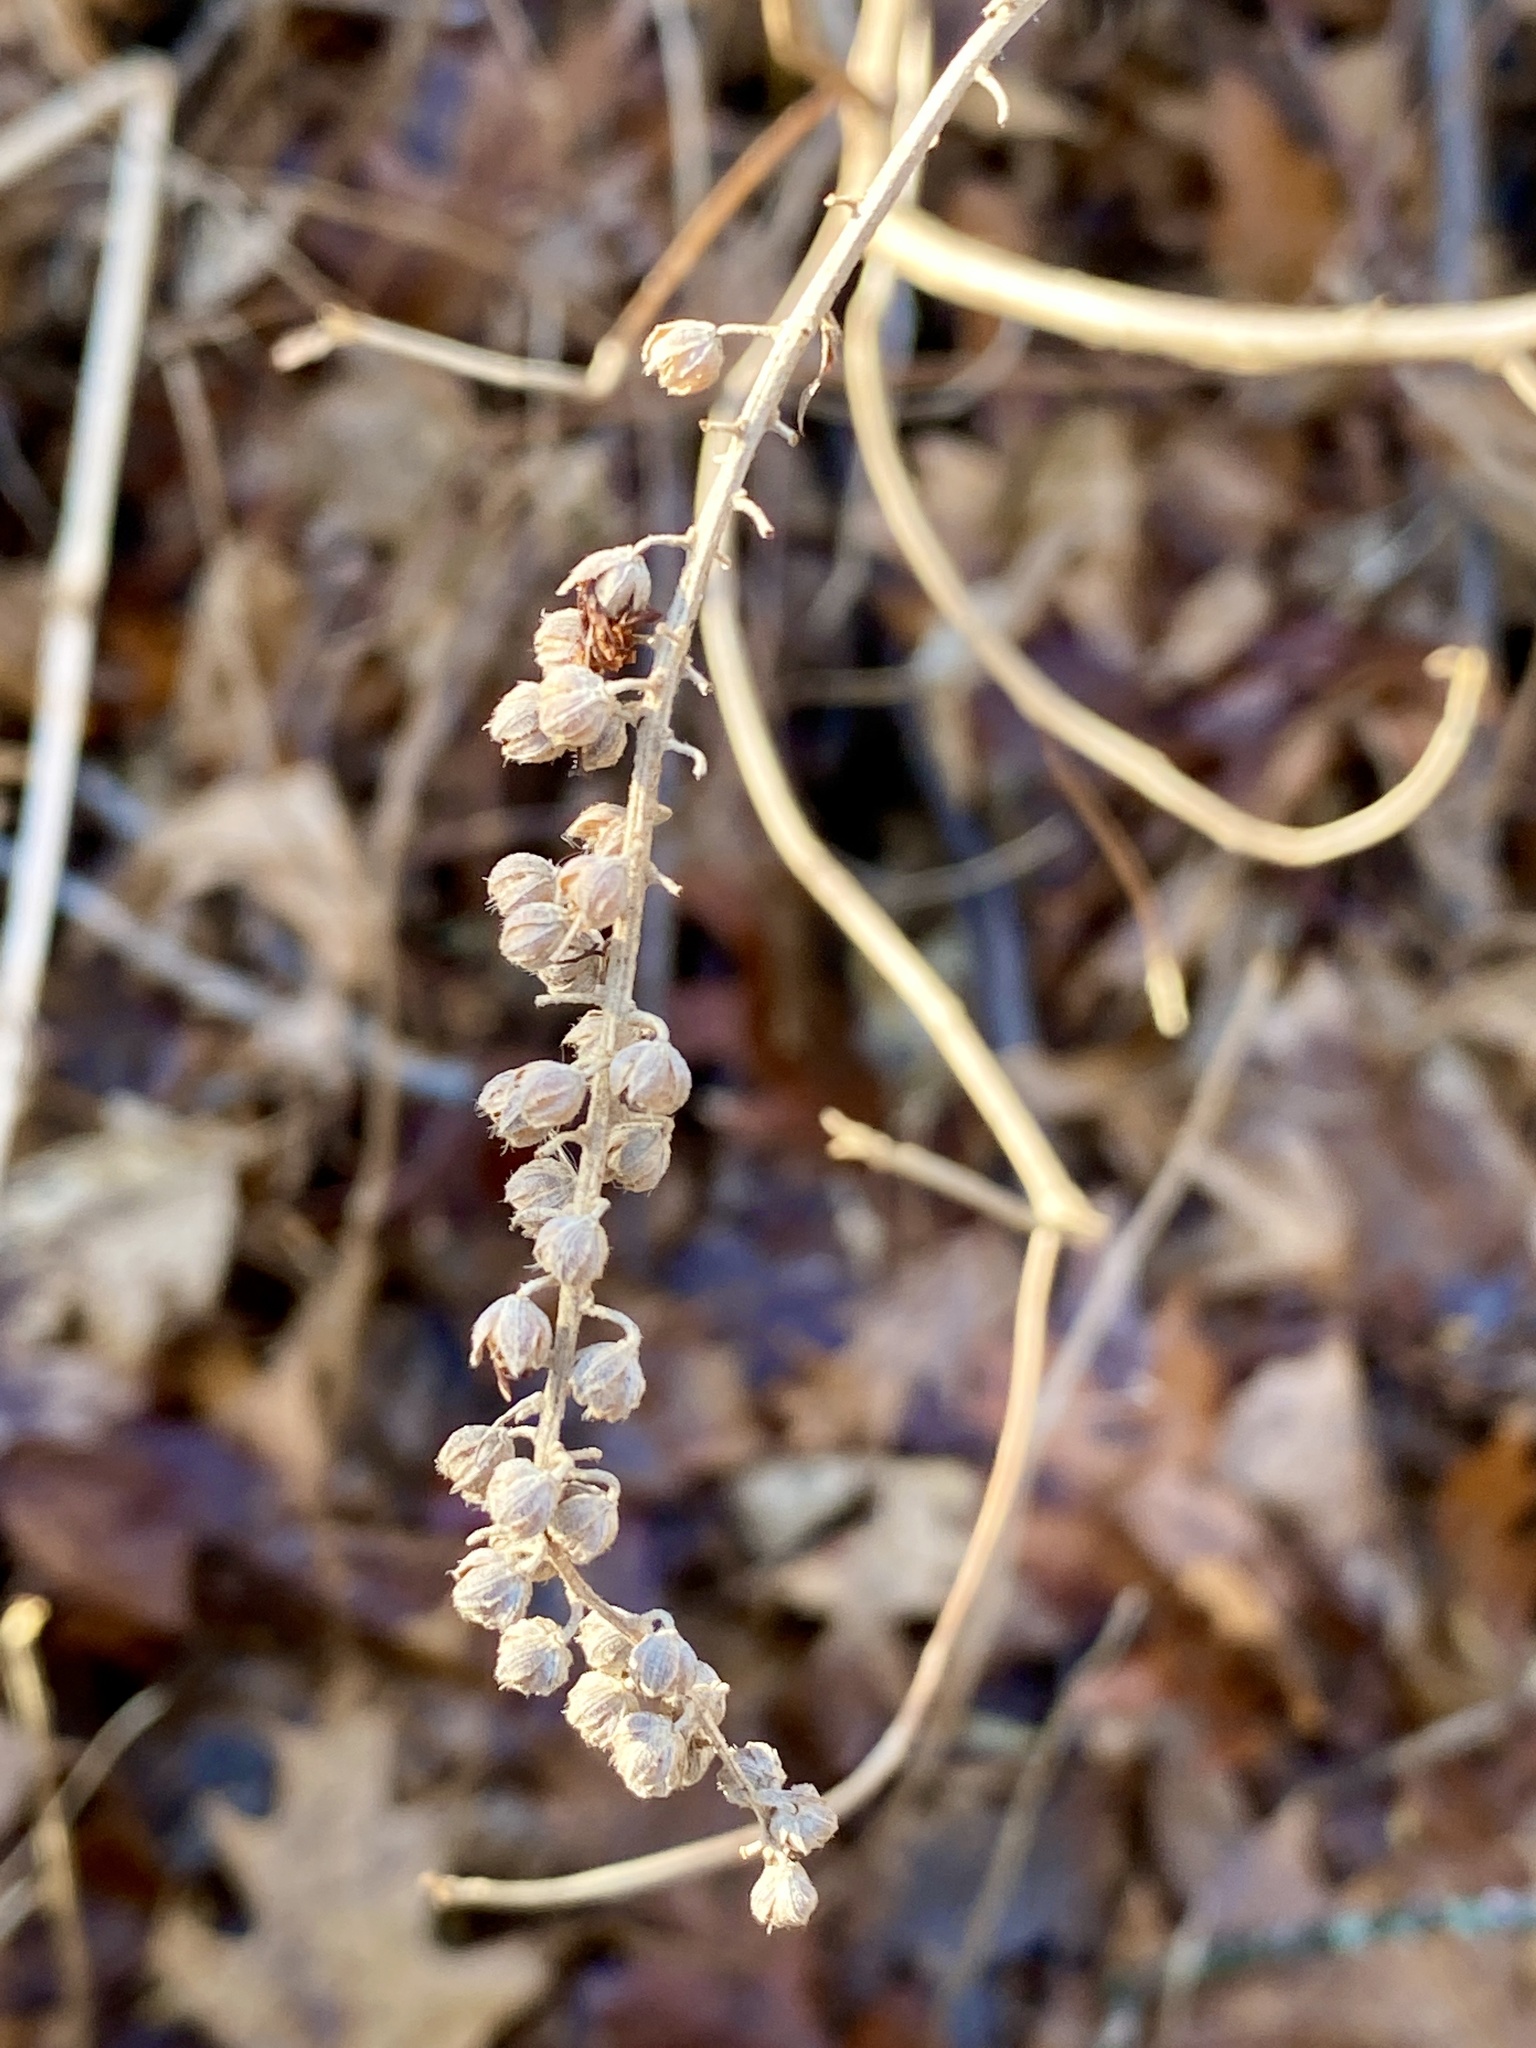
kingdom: Plantae
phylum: Tracheophyta
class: Magnoliopsida
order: Ericales
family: Clethraceae
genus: Clethra
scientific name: Clethra alnifolia
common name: Sweet pepperbush
